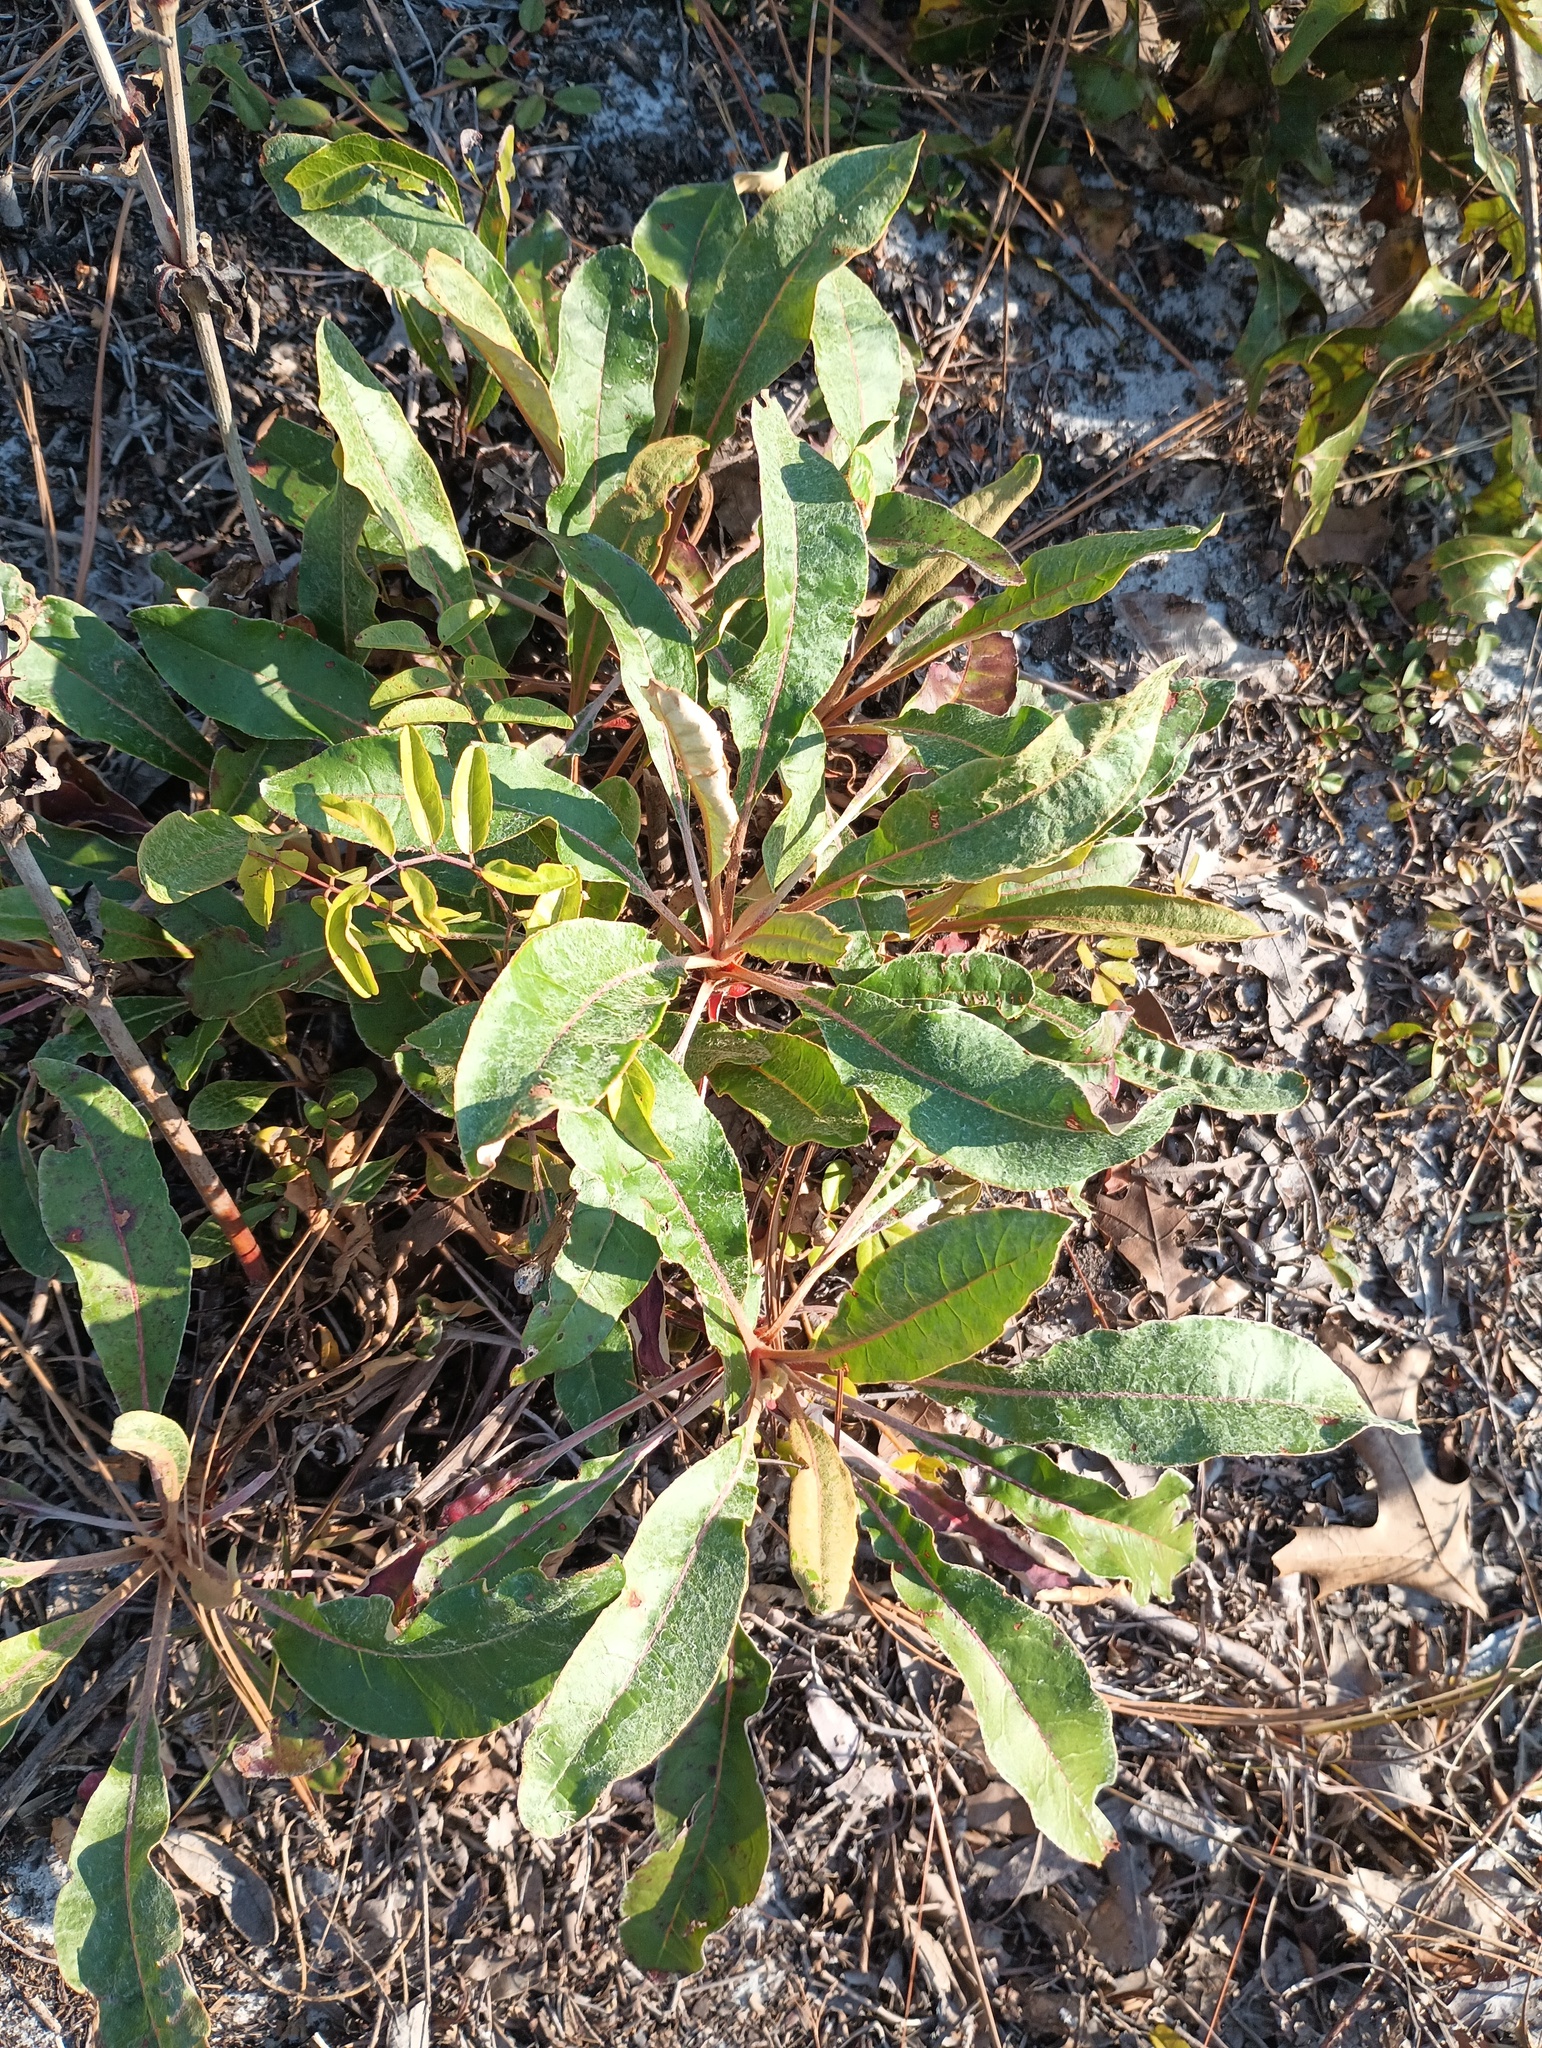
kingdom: Plantae
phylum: Tracheophyta
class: Magnoliopsida
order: Caryophyllales
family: Polygonaceae
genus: Eriogonum
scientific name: Eriogonum tomentosum
